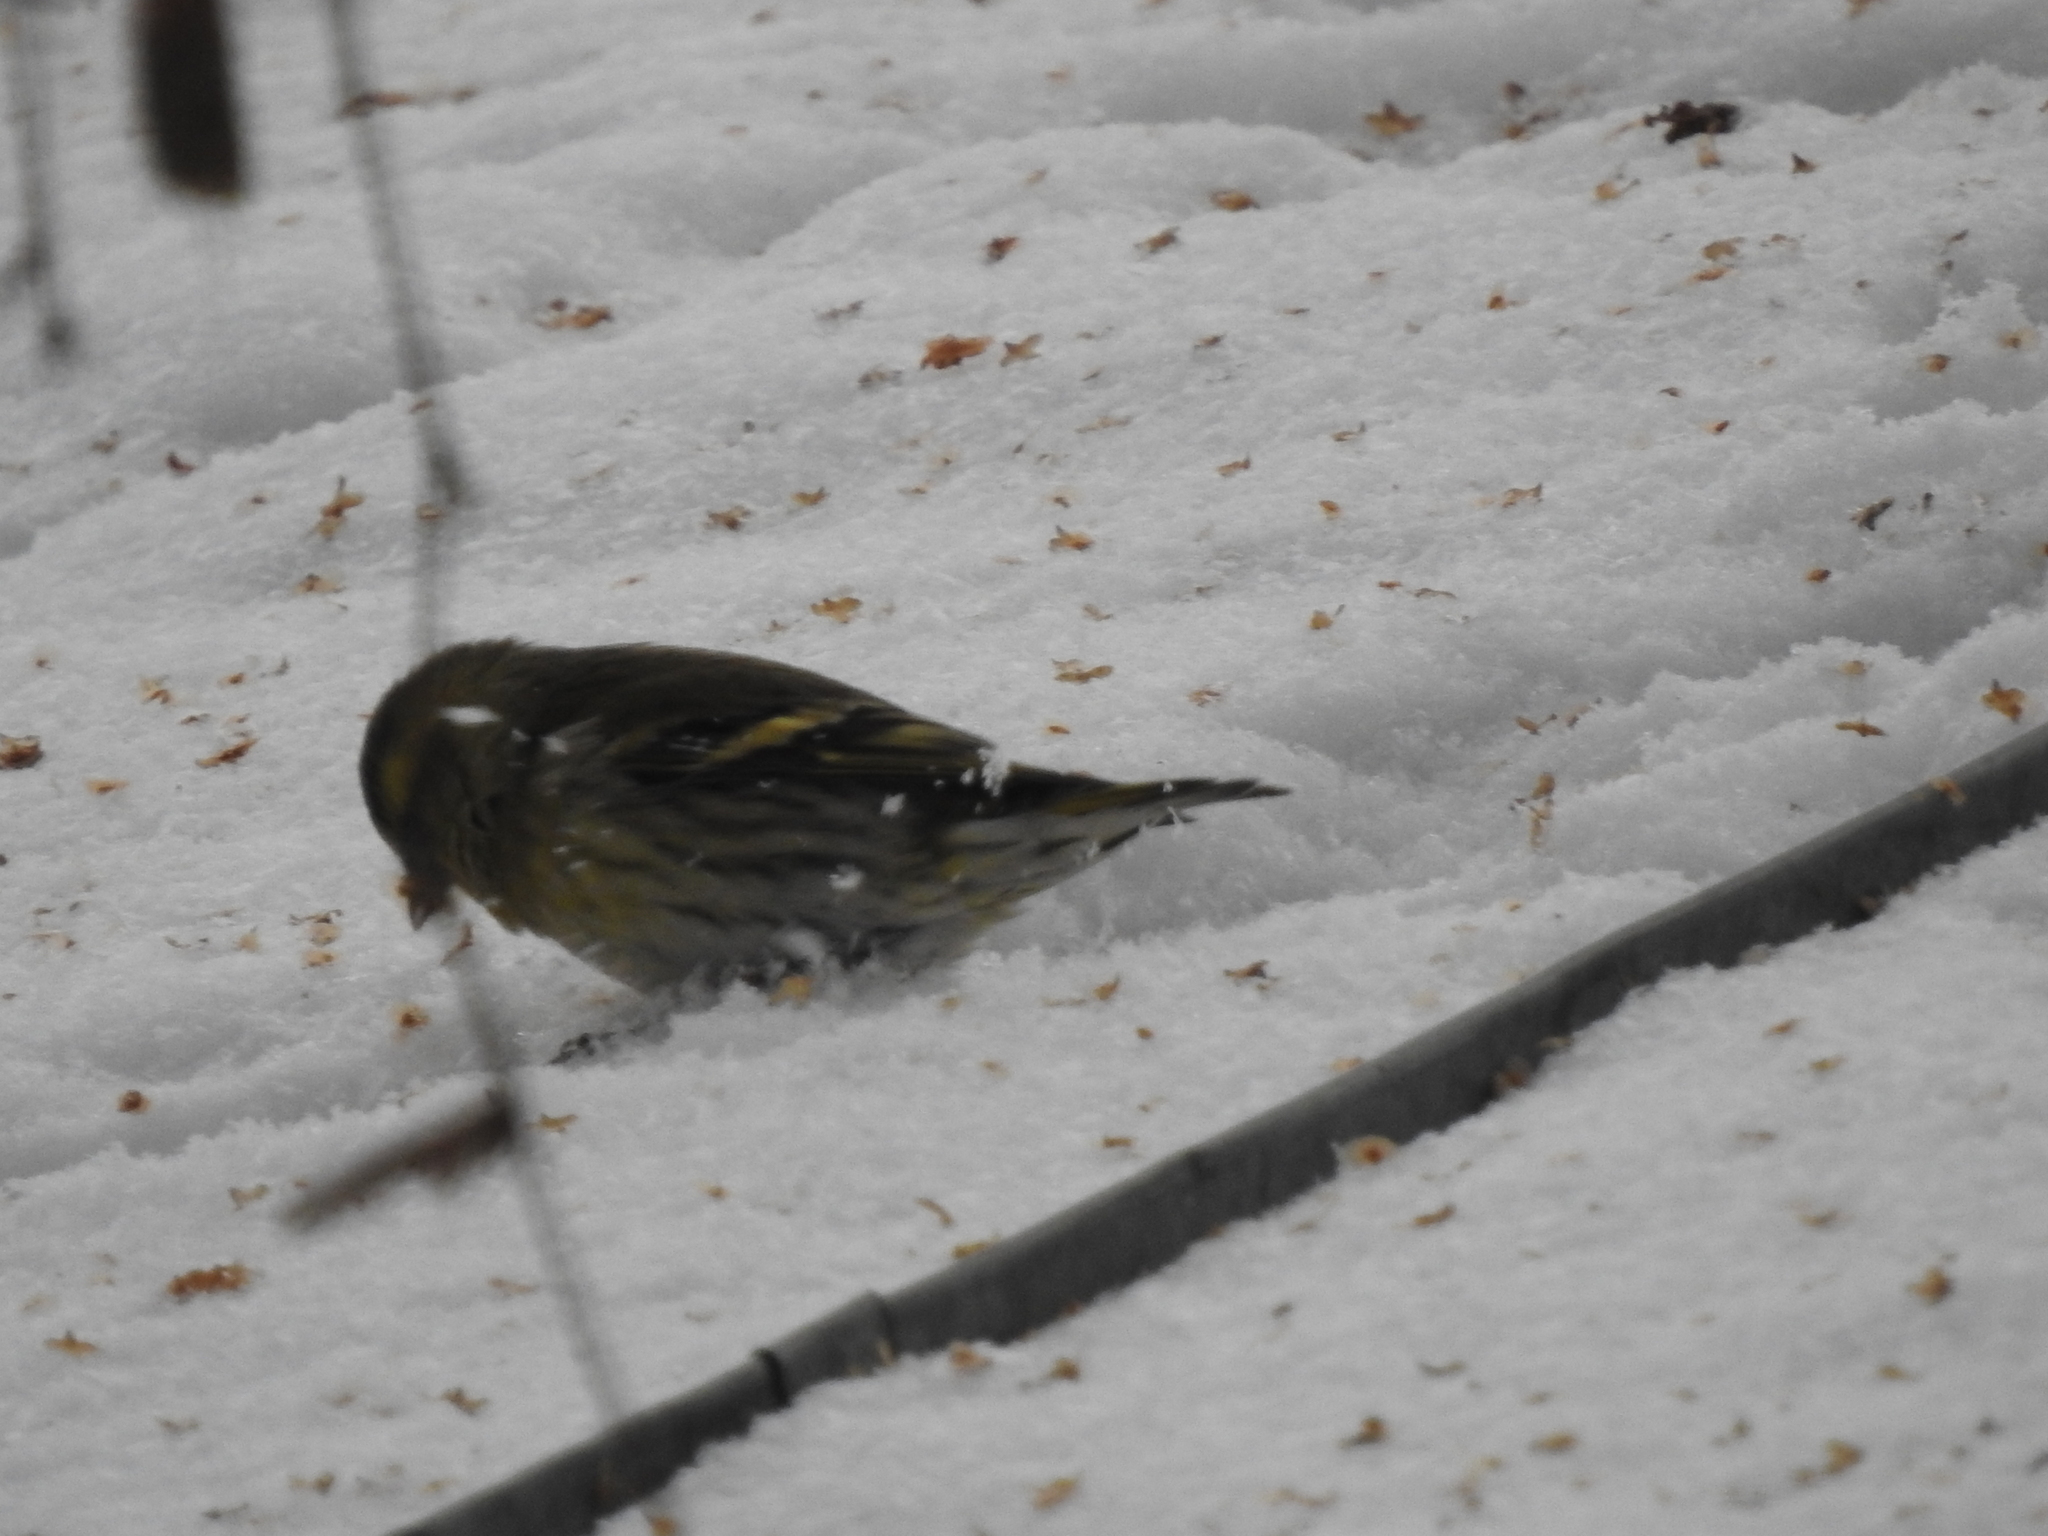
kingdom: Animalia
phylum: Chordata
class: Aves
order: Passeriformes
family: Fringillidae
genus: Spinus
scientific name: Spinus spinus
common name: Eurasian siskin
